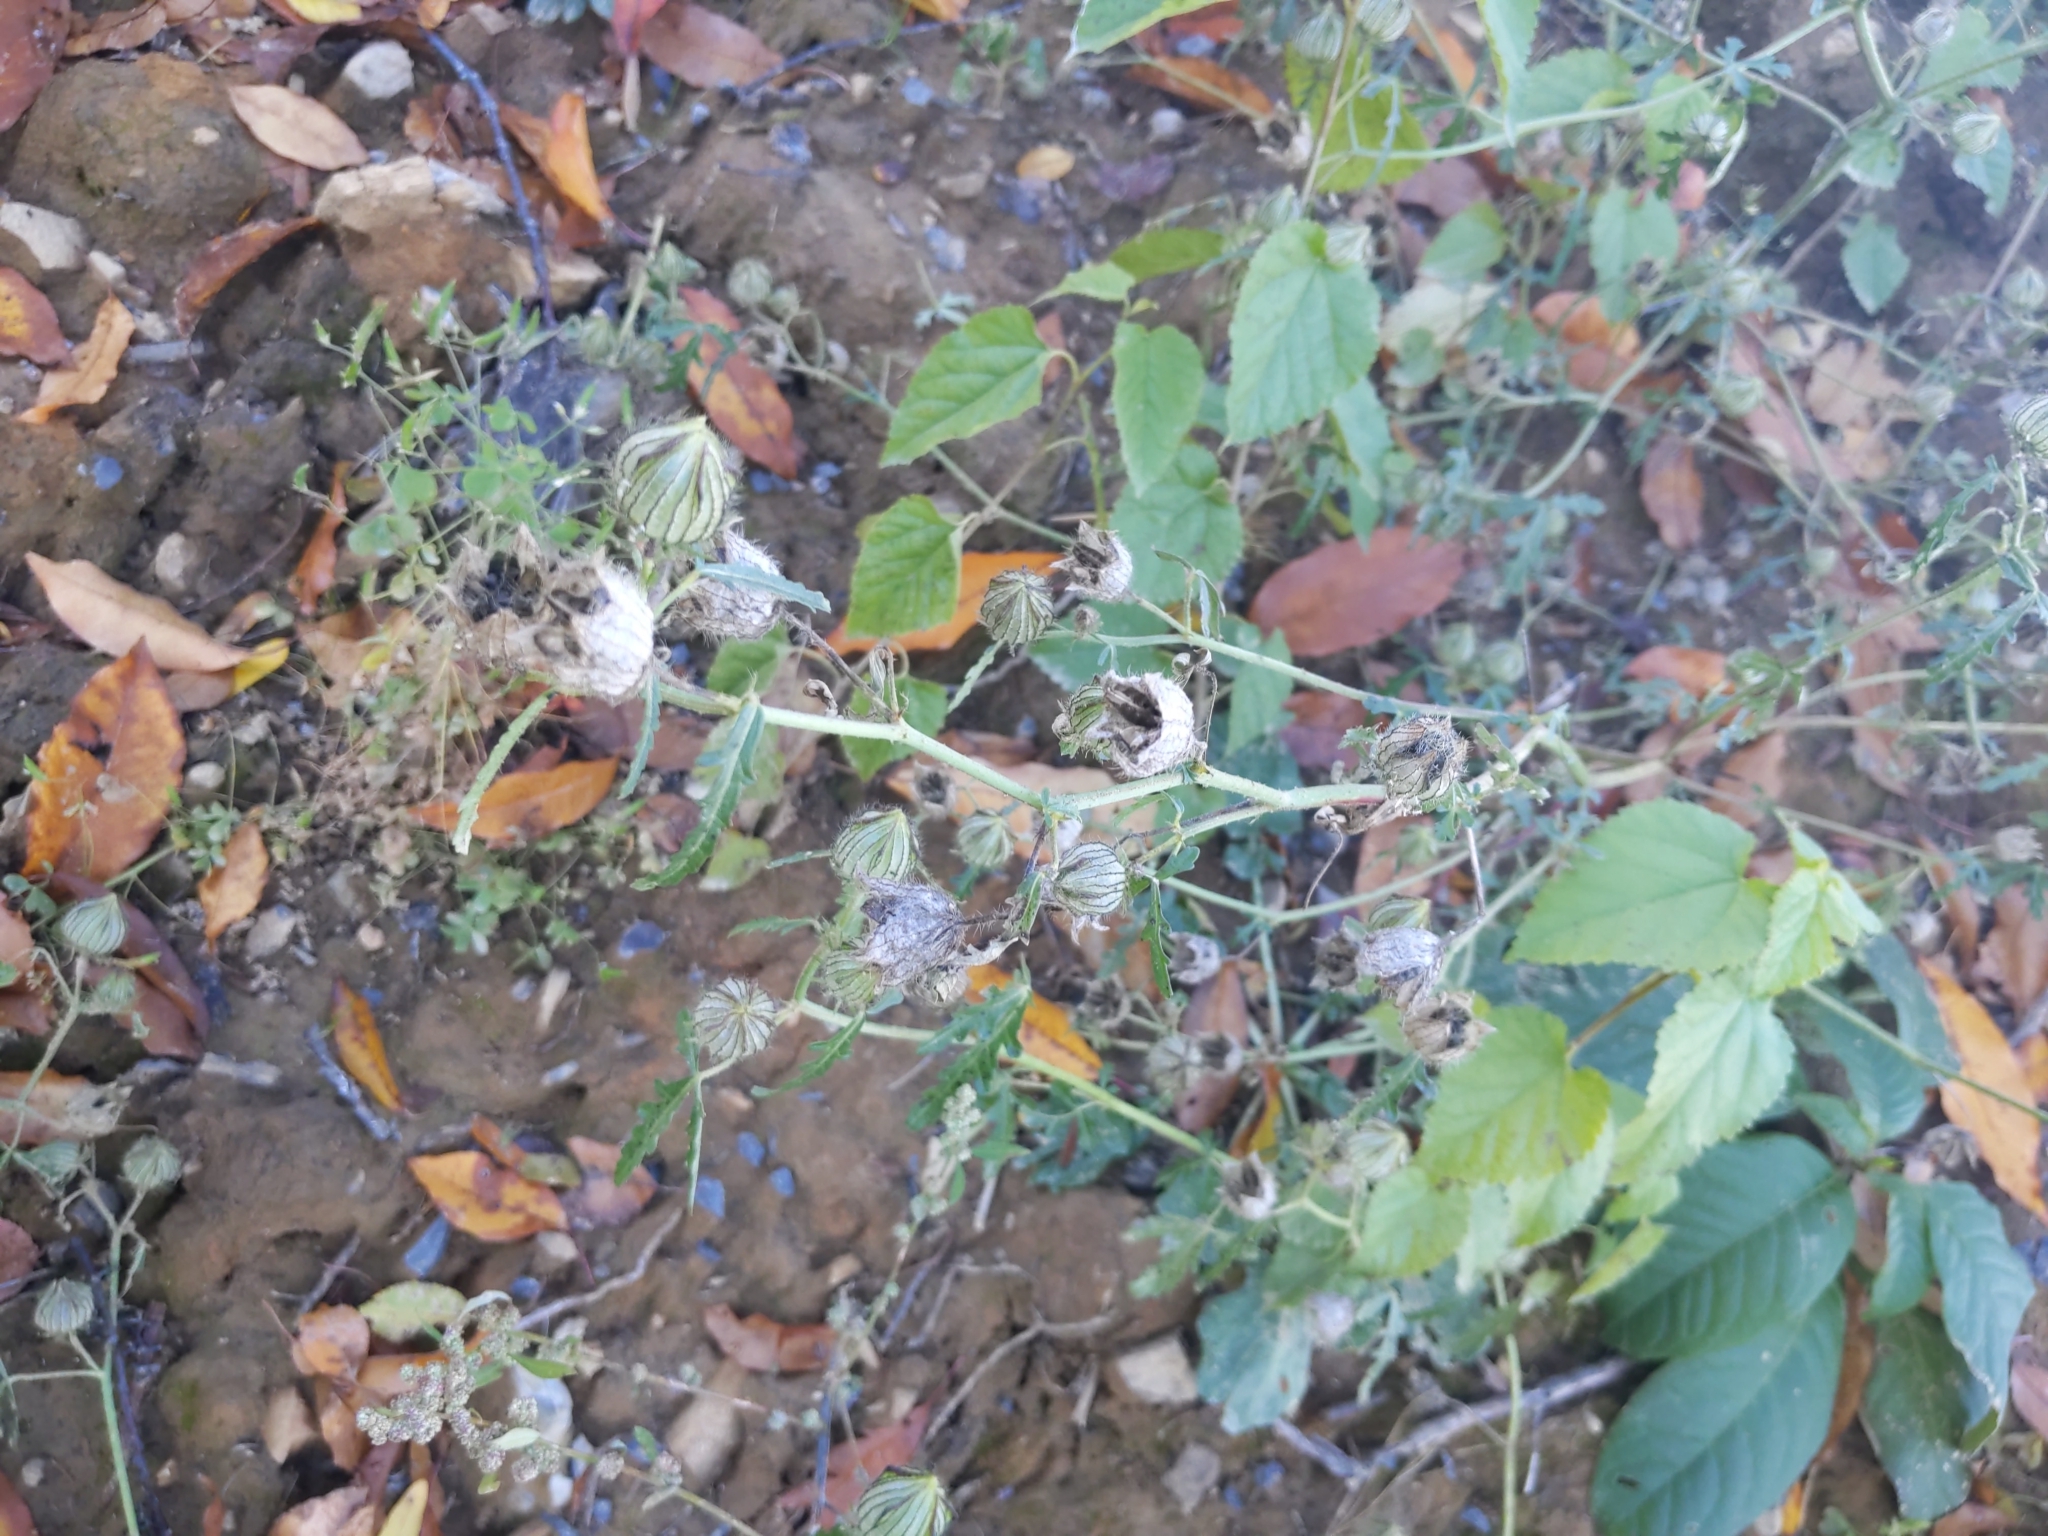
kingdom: Plantae
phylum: Tracheophyta
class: Magnoliopsida
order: Malvales
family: Malvaceae
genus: Hibiscus
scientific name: Hibiscus trionum
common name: Bladder ketmia
